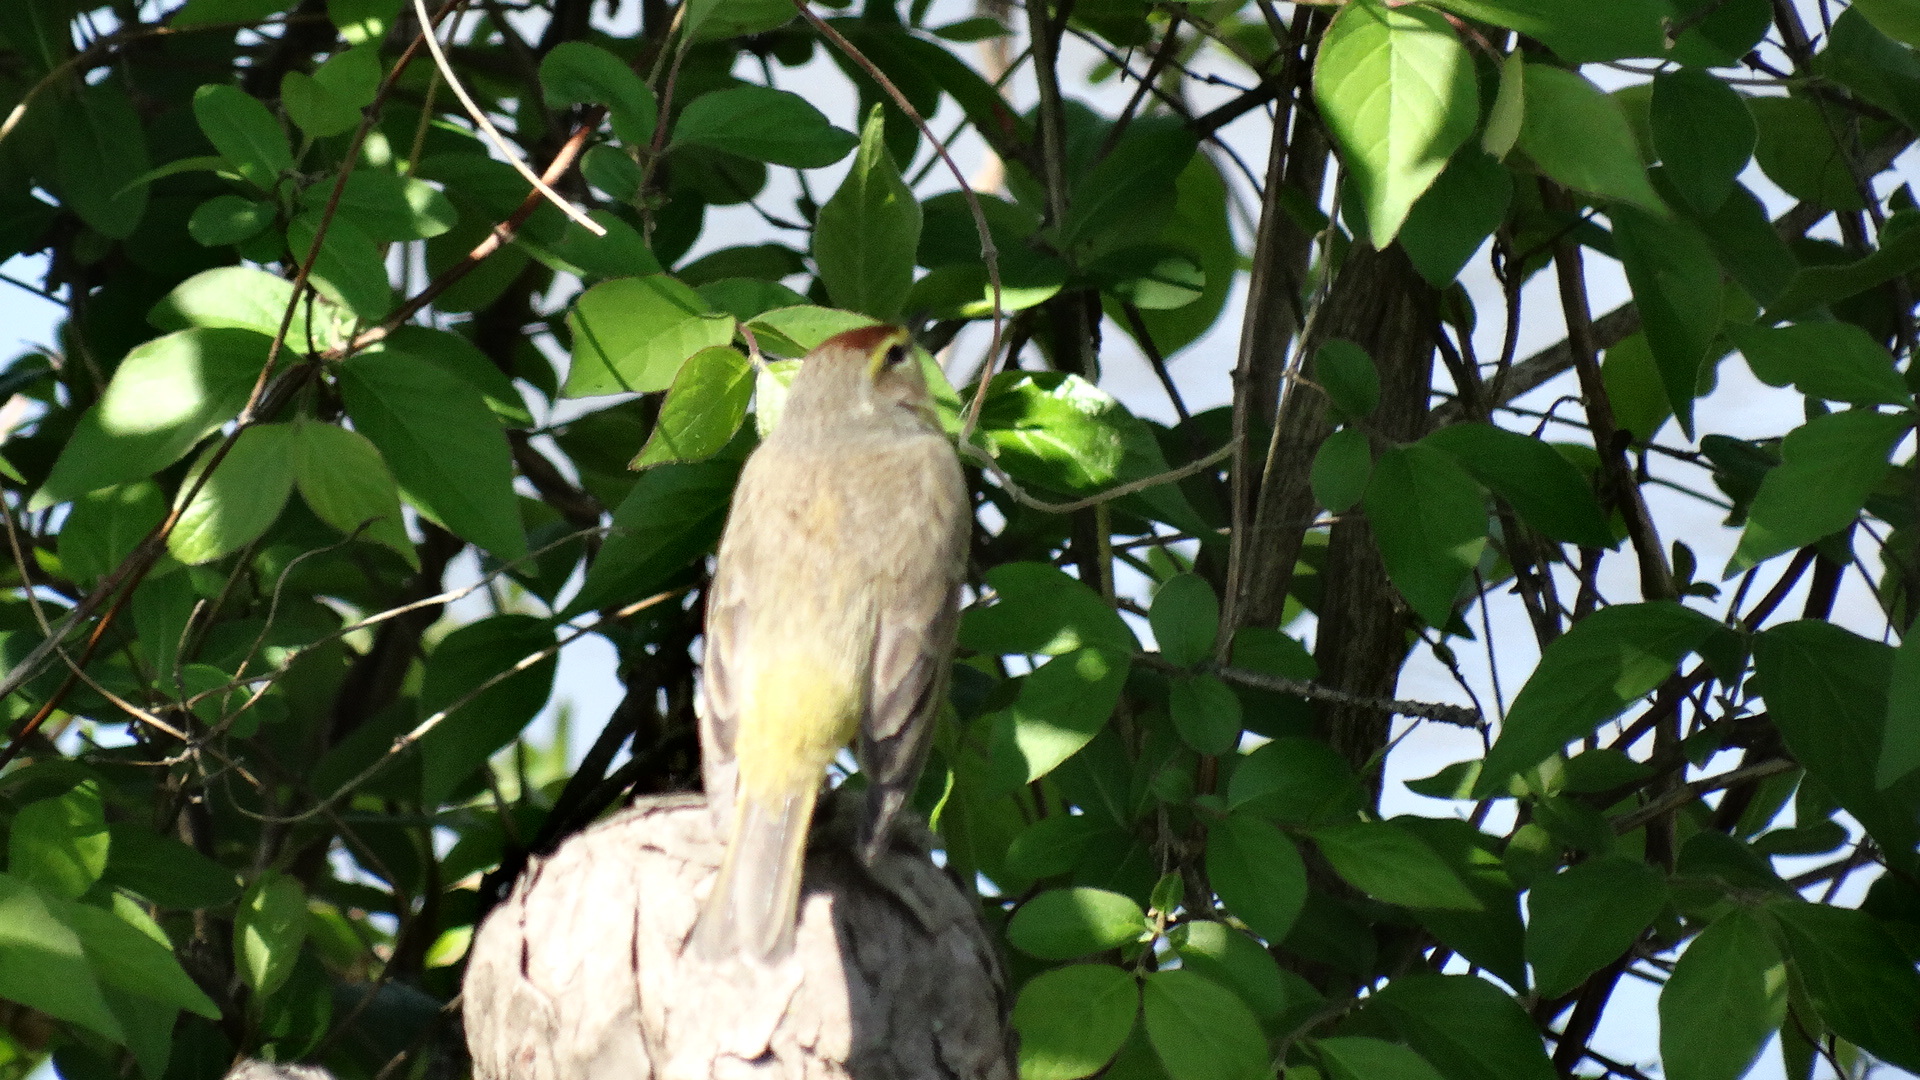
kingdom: Animalia
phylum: Chordata
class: Aves
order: Passeriformes
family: Parulidae
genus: Setophaga
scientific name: Setophaga palmarum
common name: Palm warbler
